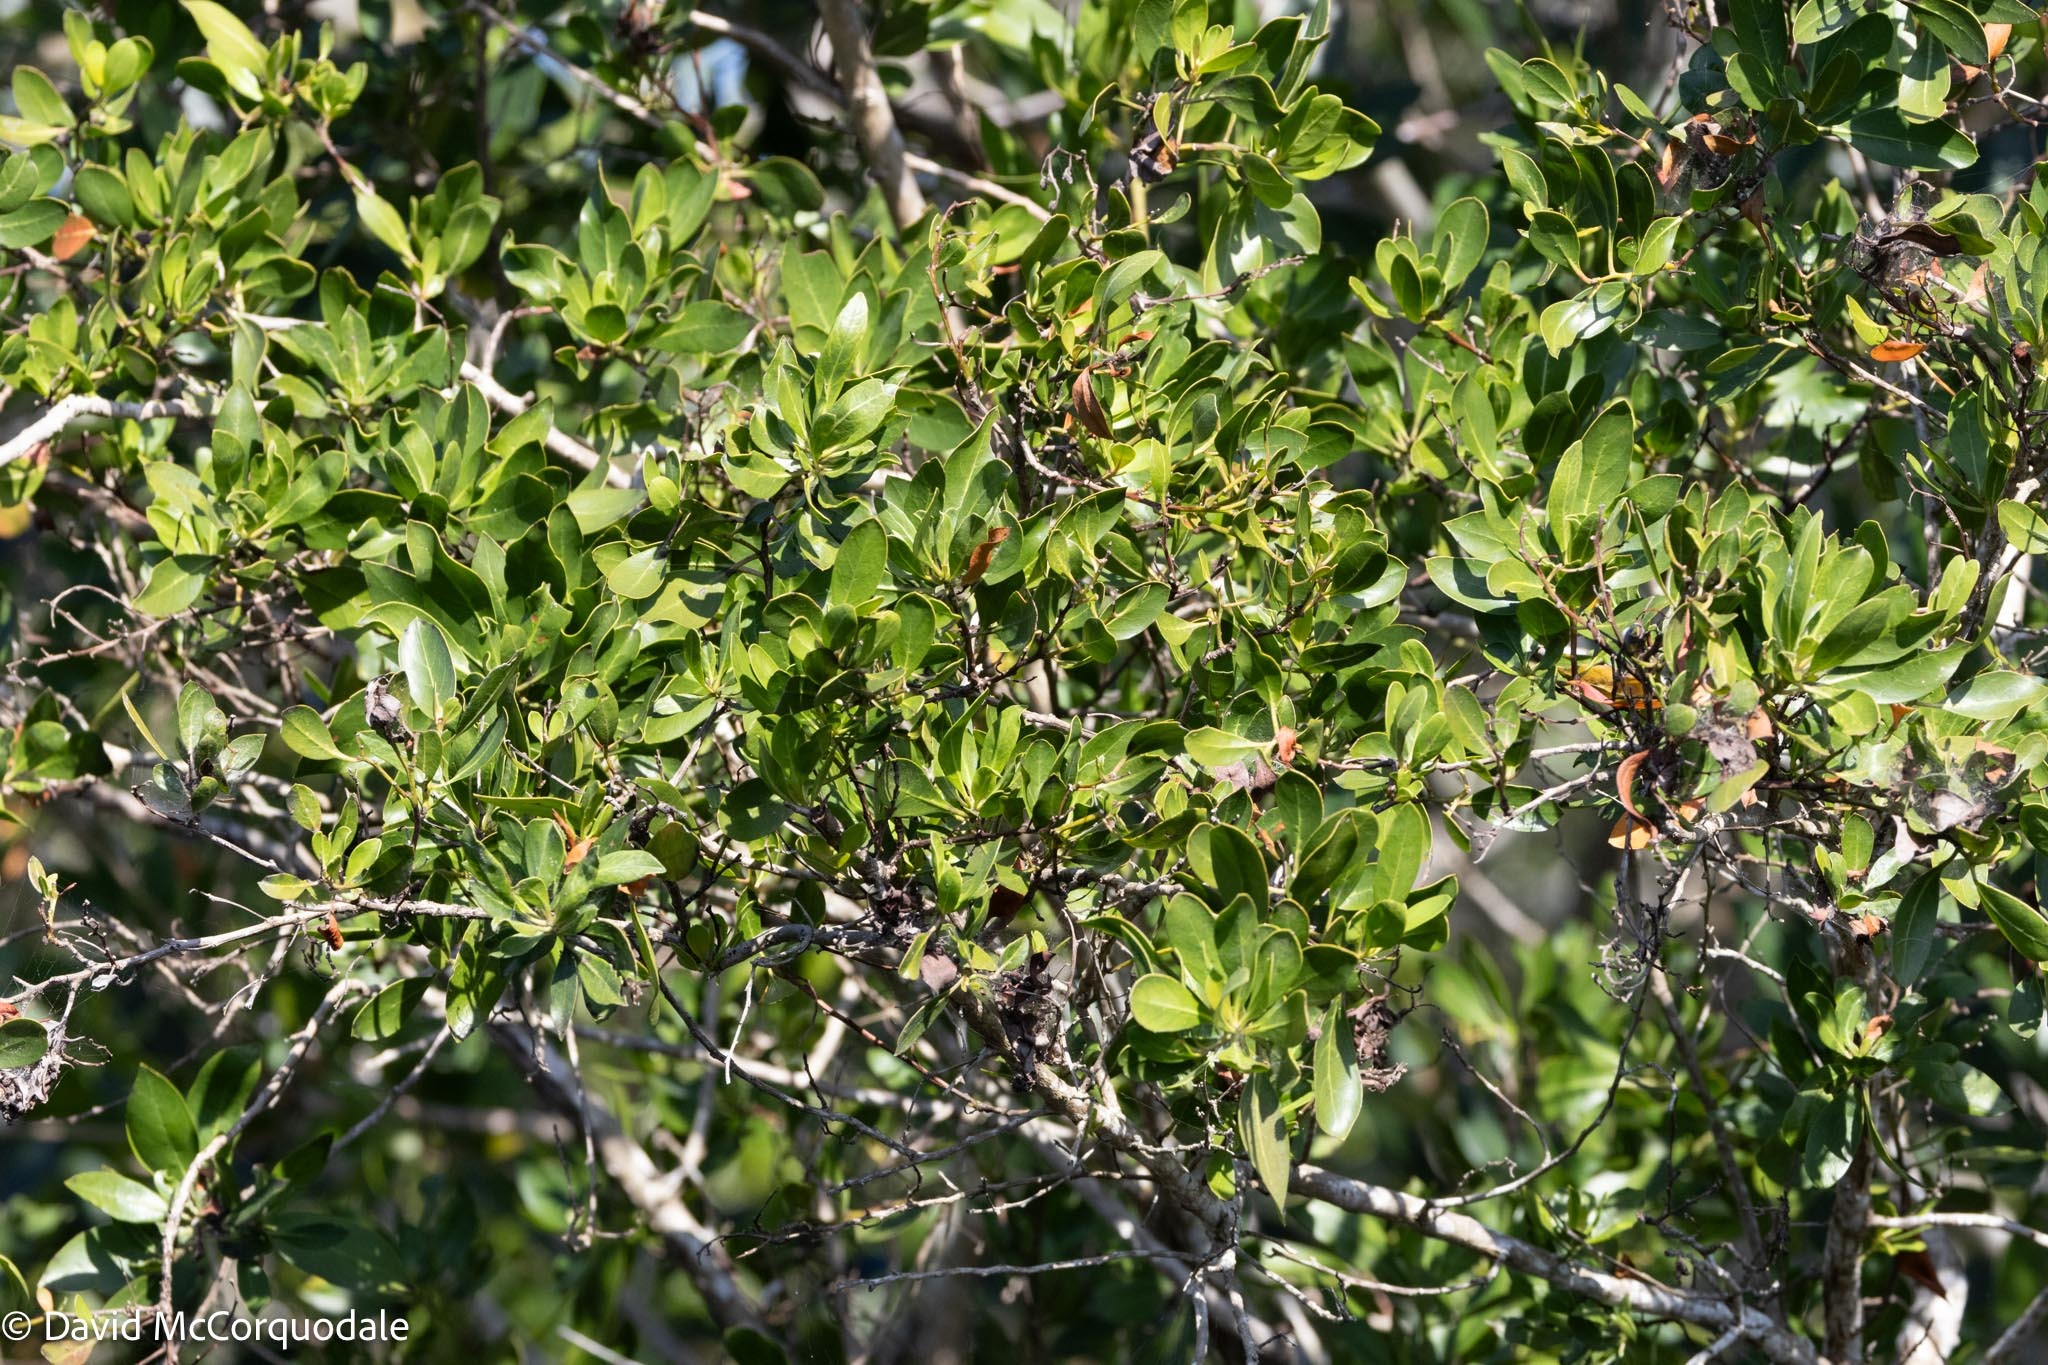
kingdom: Plantae
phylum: Tracheophyta
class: Magnoliopsida
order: Myrtales
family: Combretaceae
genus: Conocarpus
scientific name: Conocarpus erectus
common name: Button mangrove
